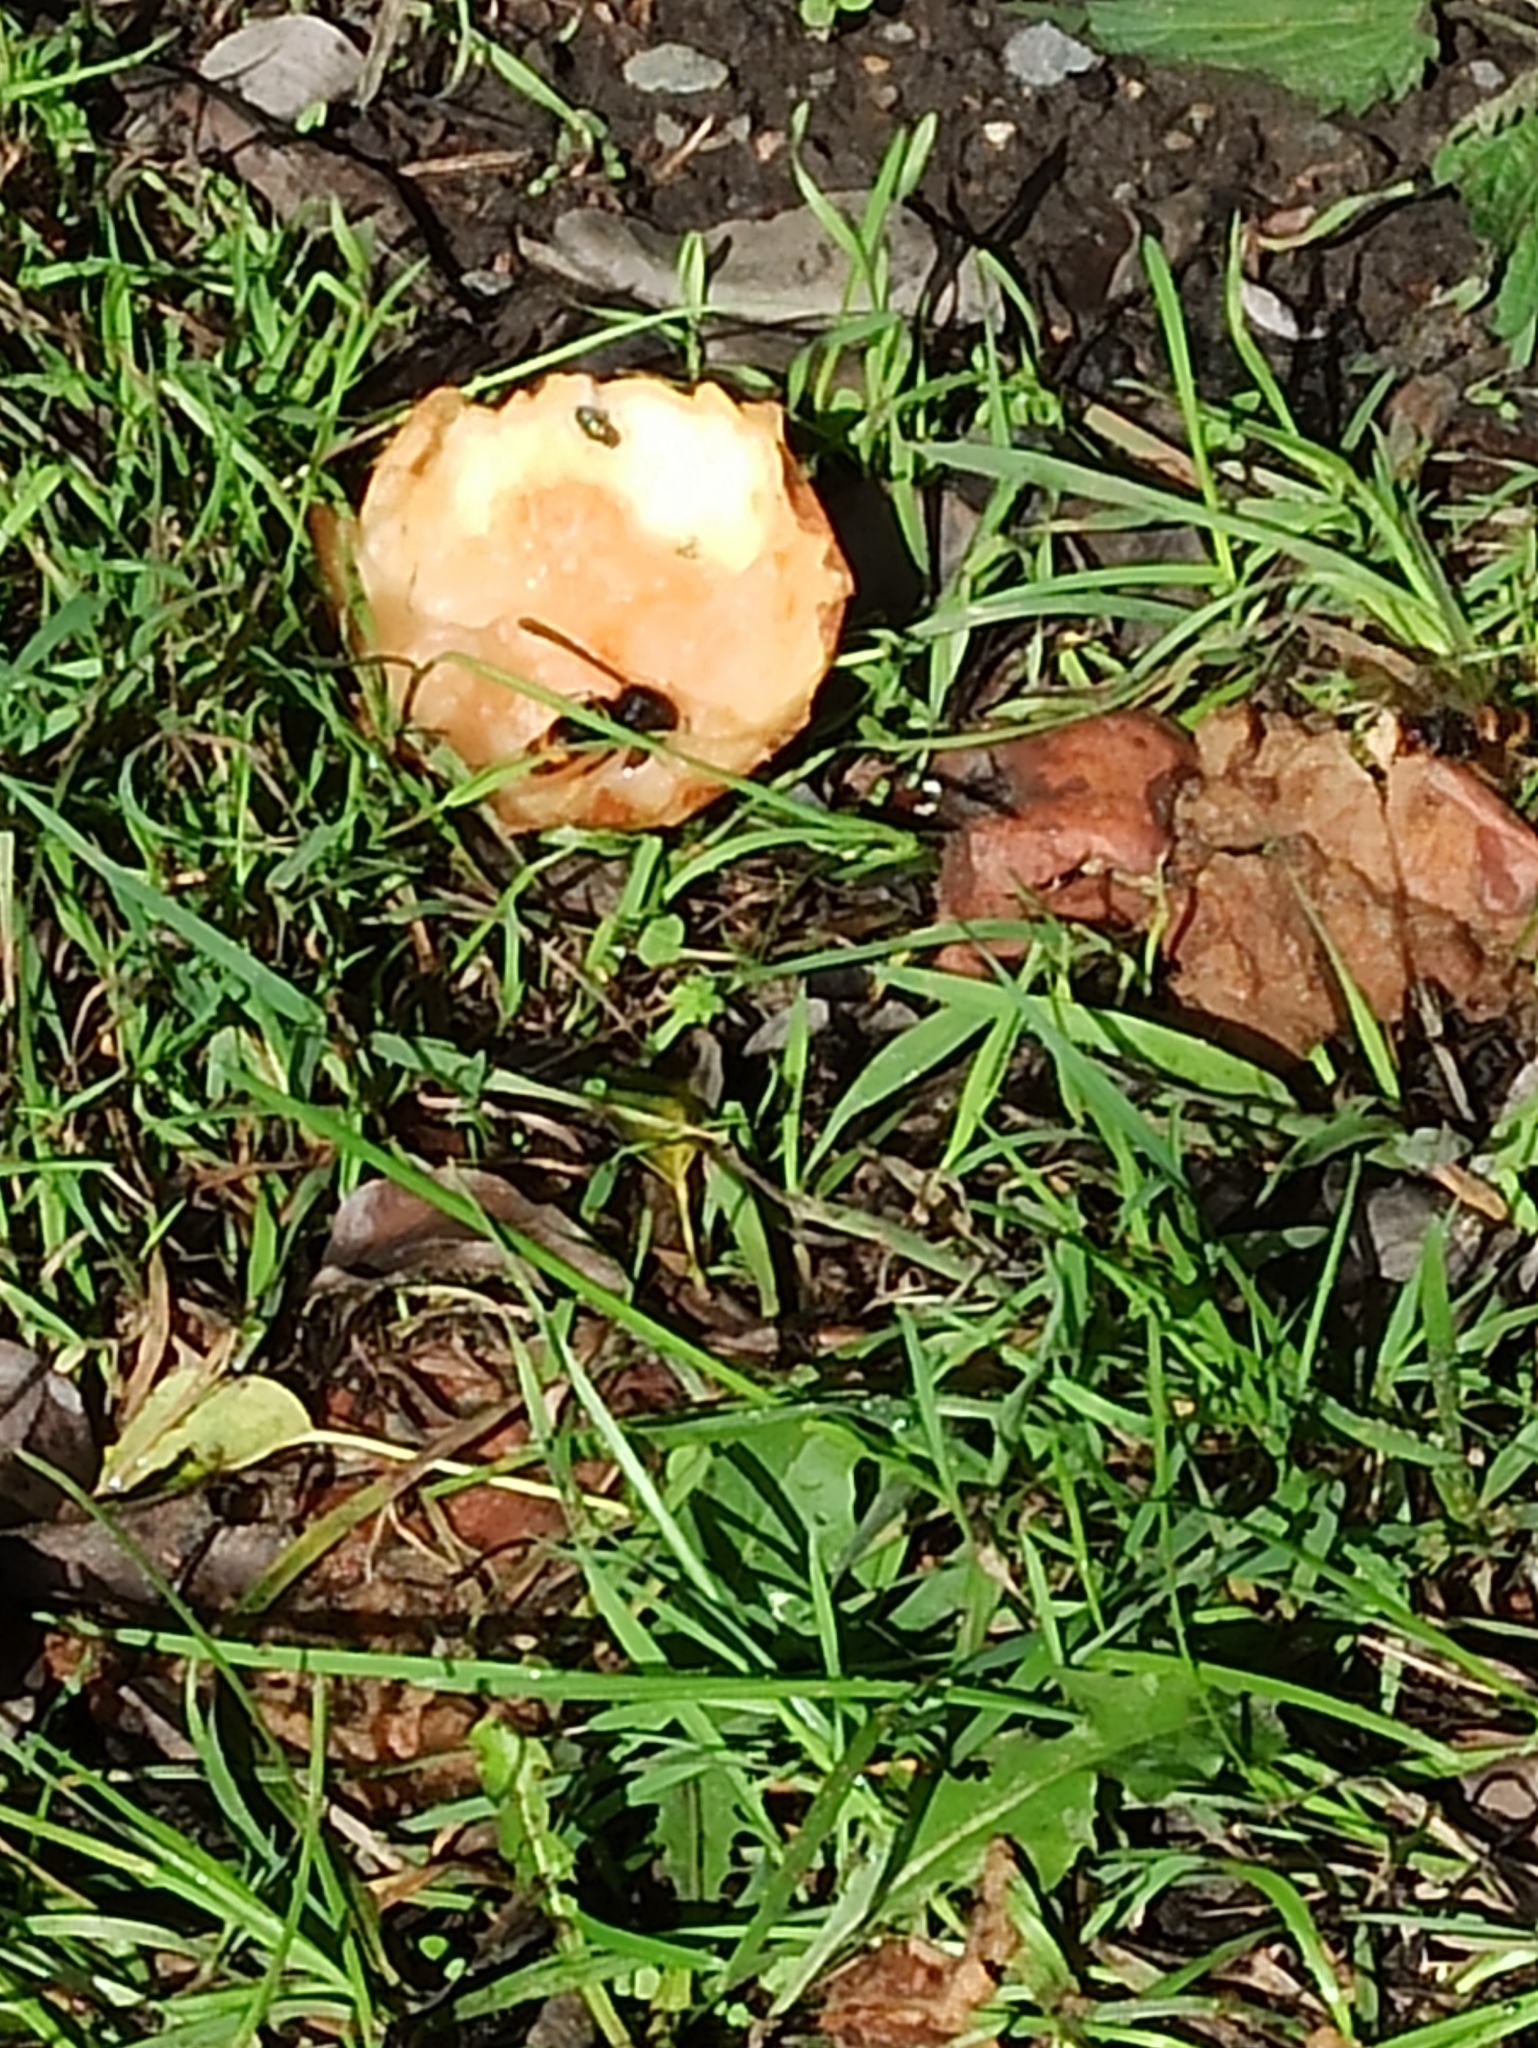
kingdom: Animalia
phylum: Arthropoda
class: Insecta
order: Hymenoptera
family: Vespidae
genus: Vespa
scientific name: Vespa velutina
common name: Asian hornet
